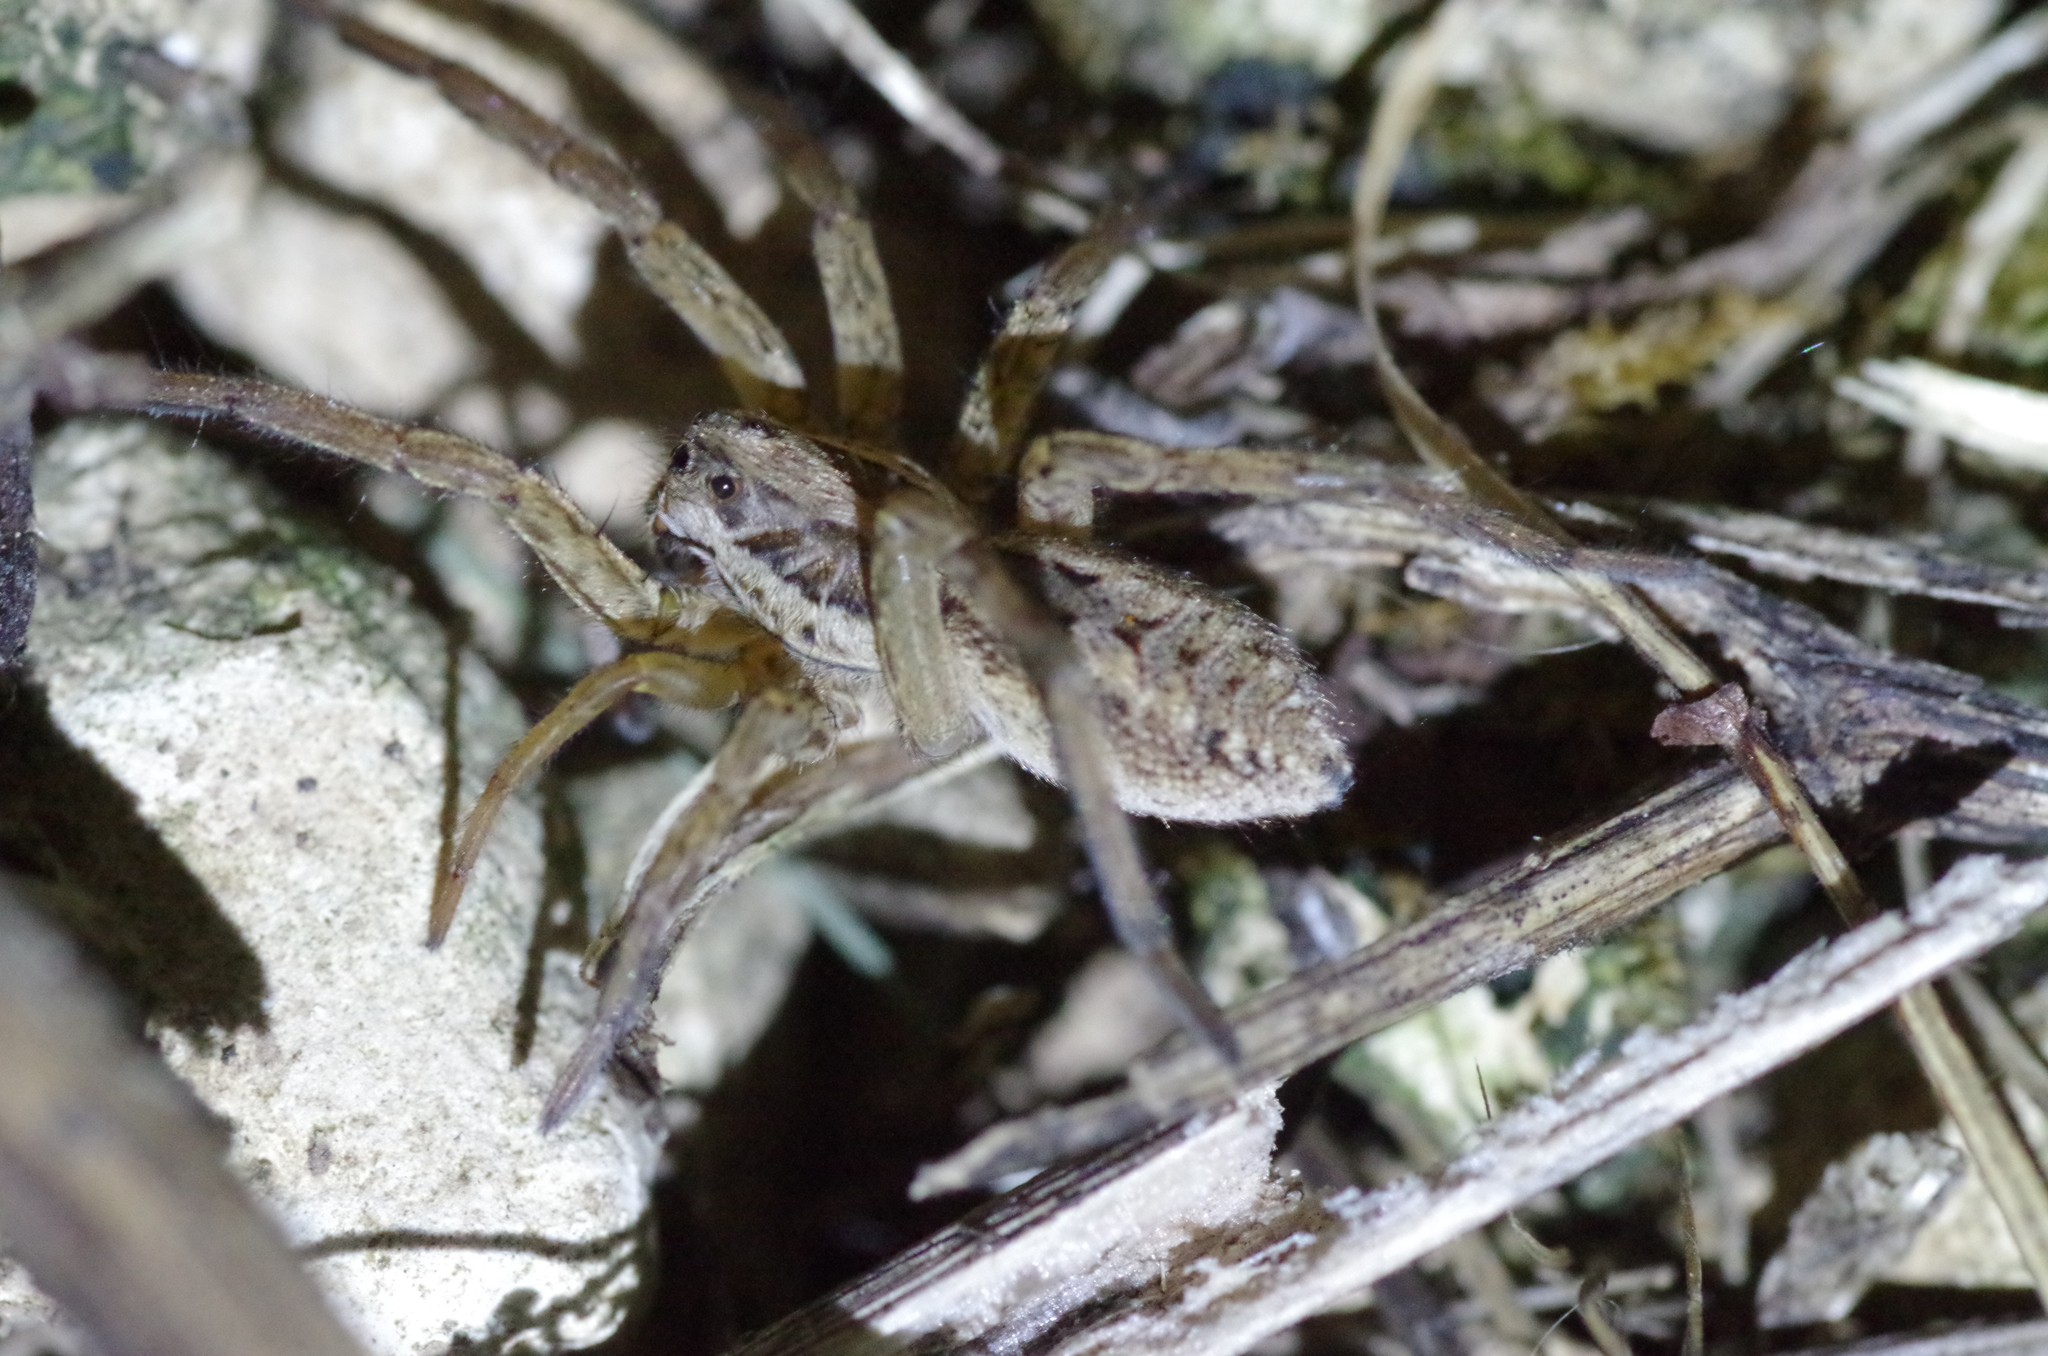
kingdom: Animalia
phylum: Arthropoda
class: Arachnida
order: Araneae
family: Lycosidae
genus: Hogna
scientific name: Hogna radiata
